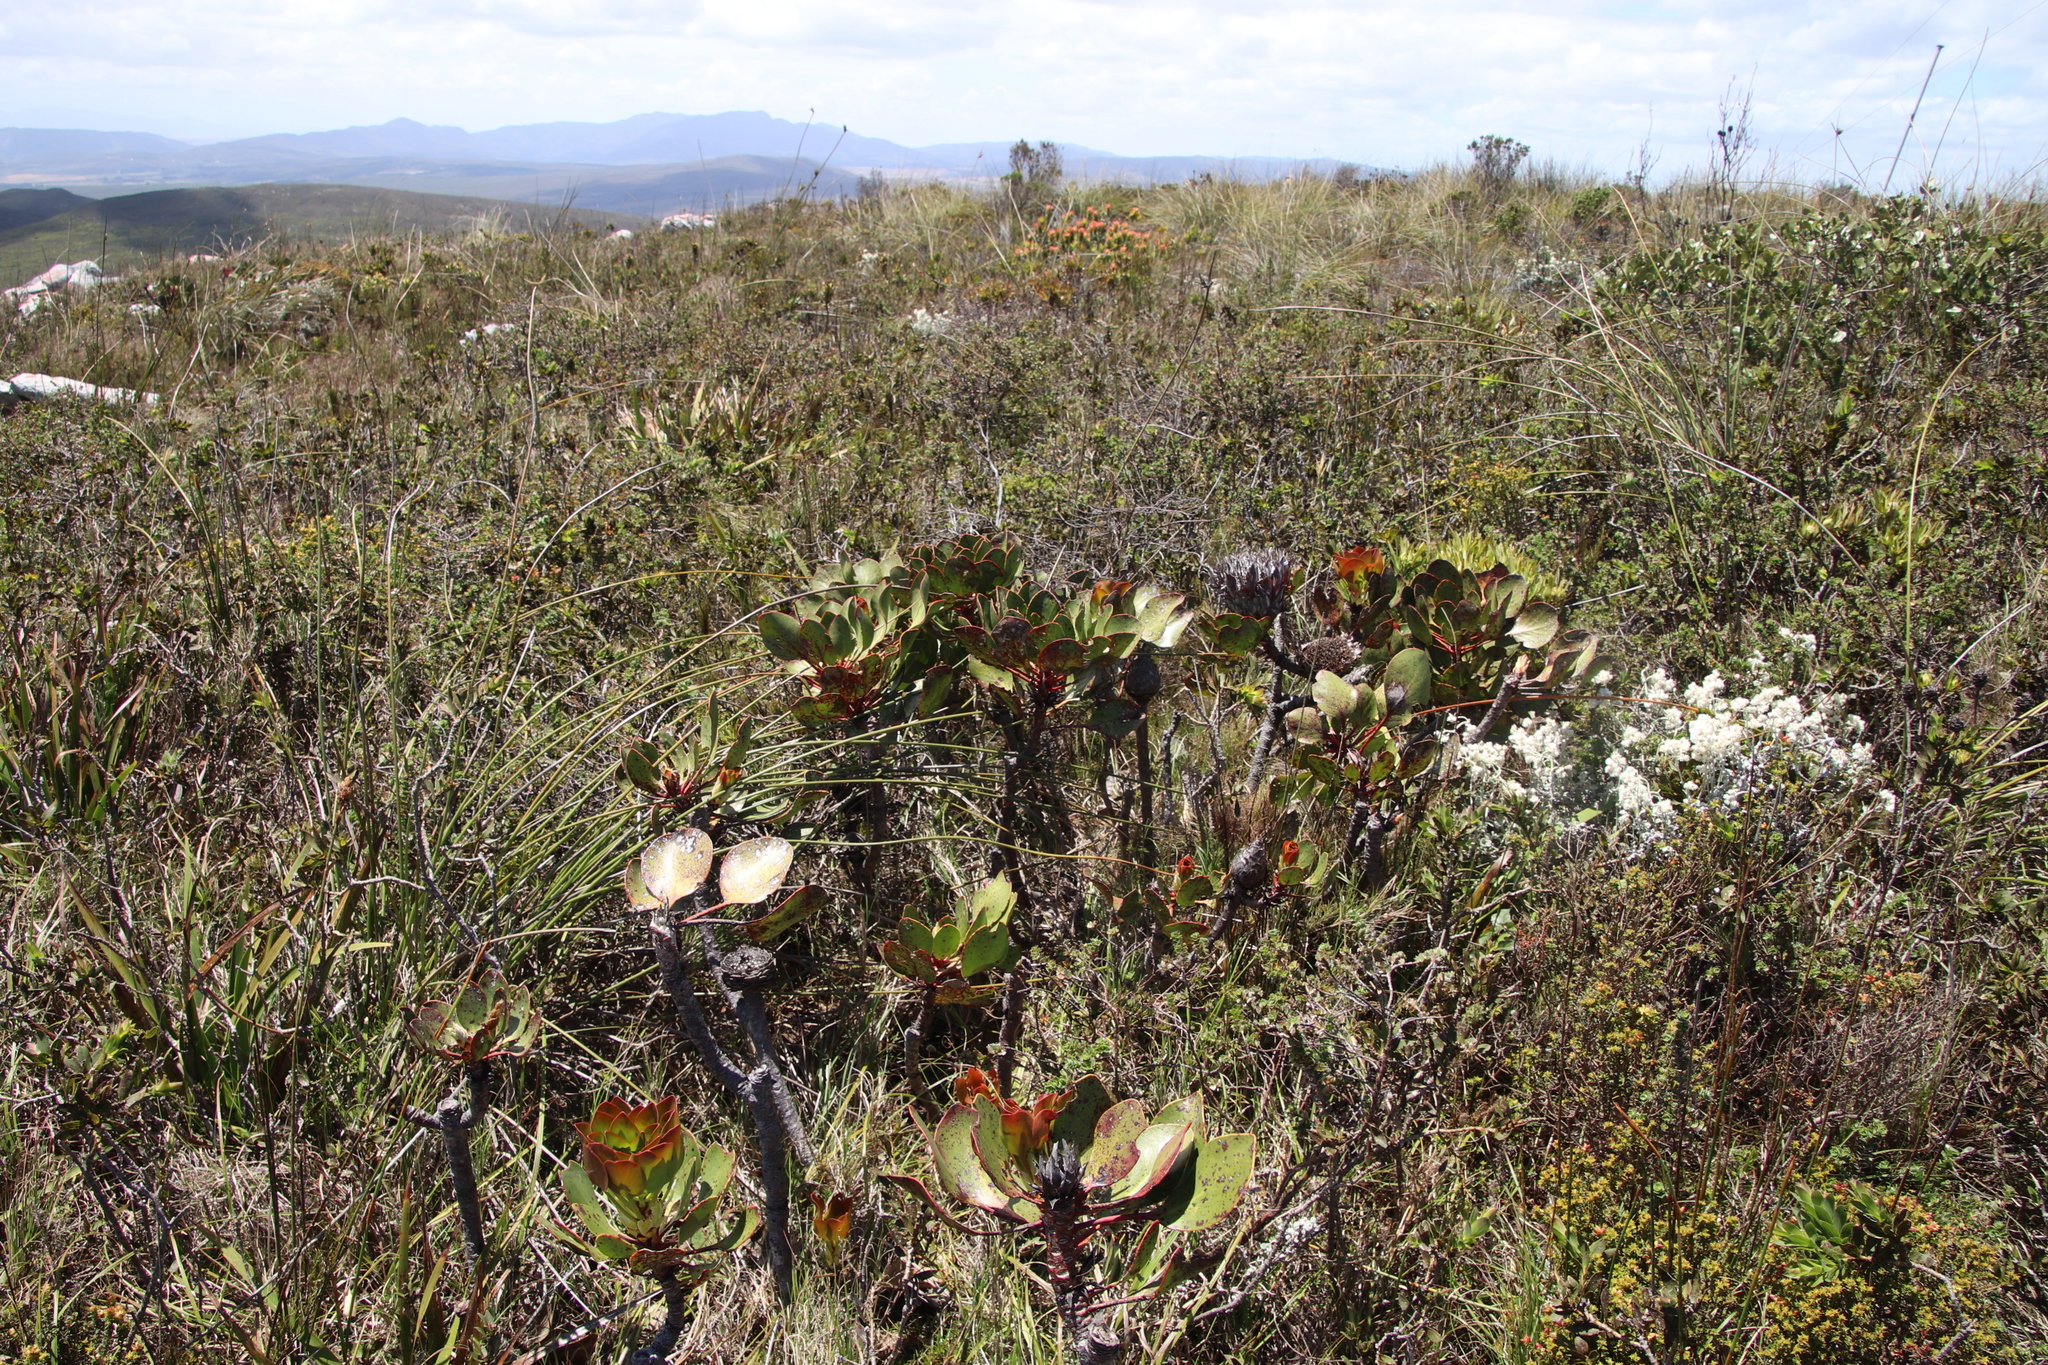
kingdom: Plantae
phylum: Tracheophyta
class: Magnoliopsida
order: Proteales
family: Proteaceae
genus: Protea
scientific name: Protea cynaroides
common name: King protea
